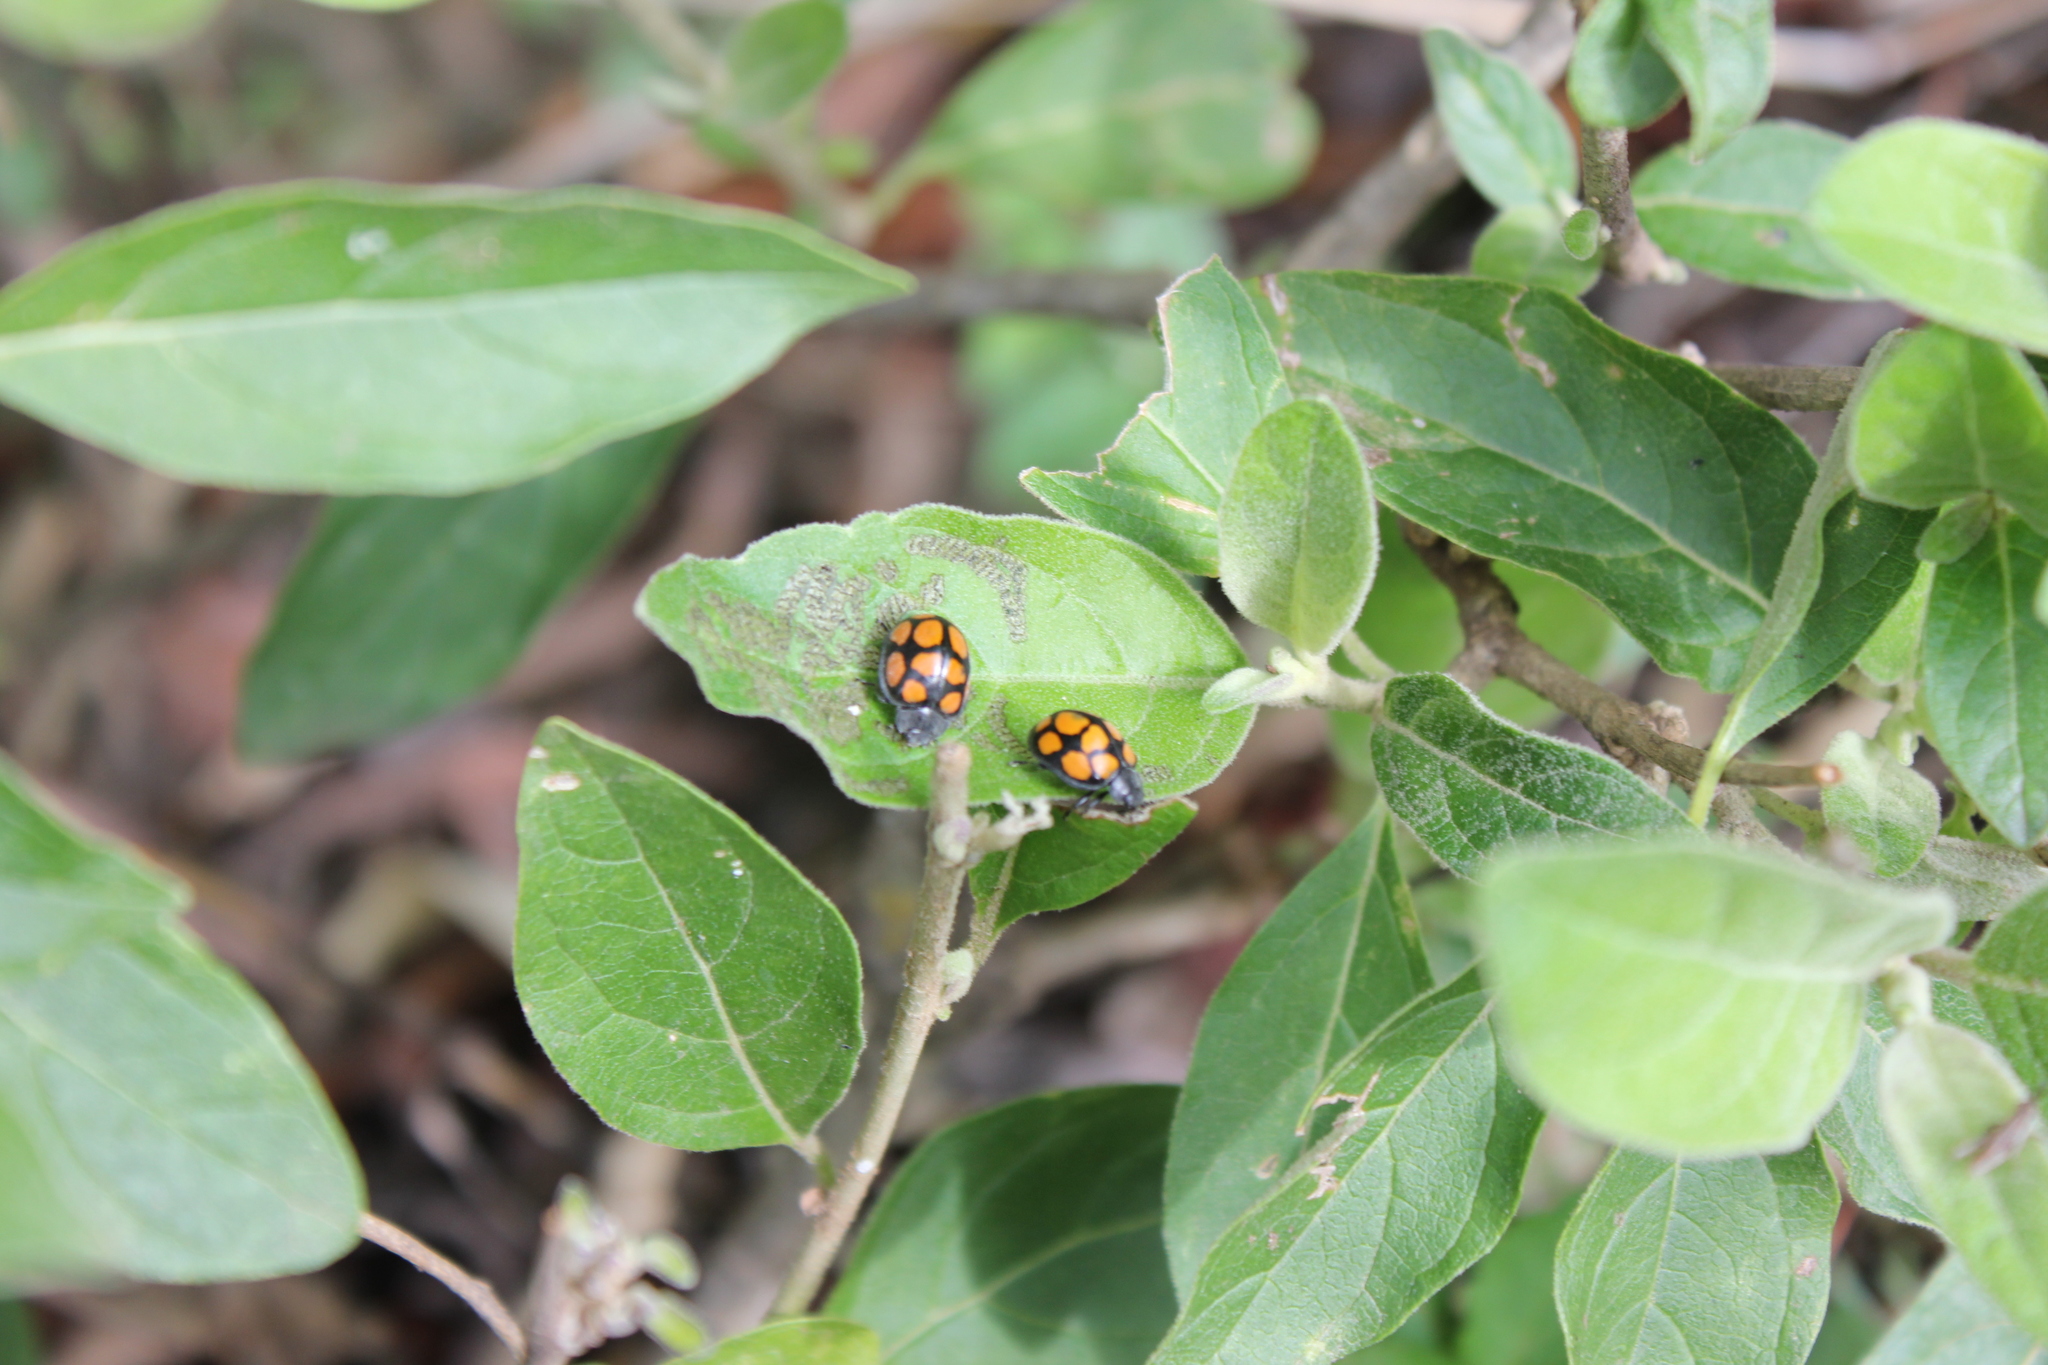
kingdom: Animalia
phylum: Arthropoda
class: Insecta
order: Coleoptera
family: Coccinellidae
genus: Epilachna
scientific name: Epilachna
